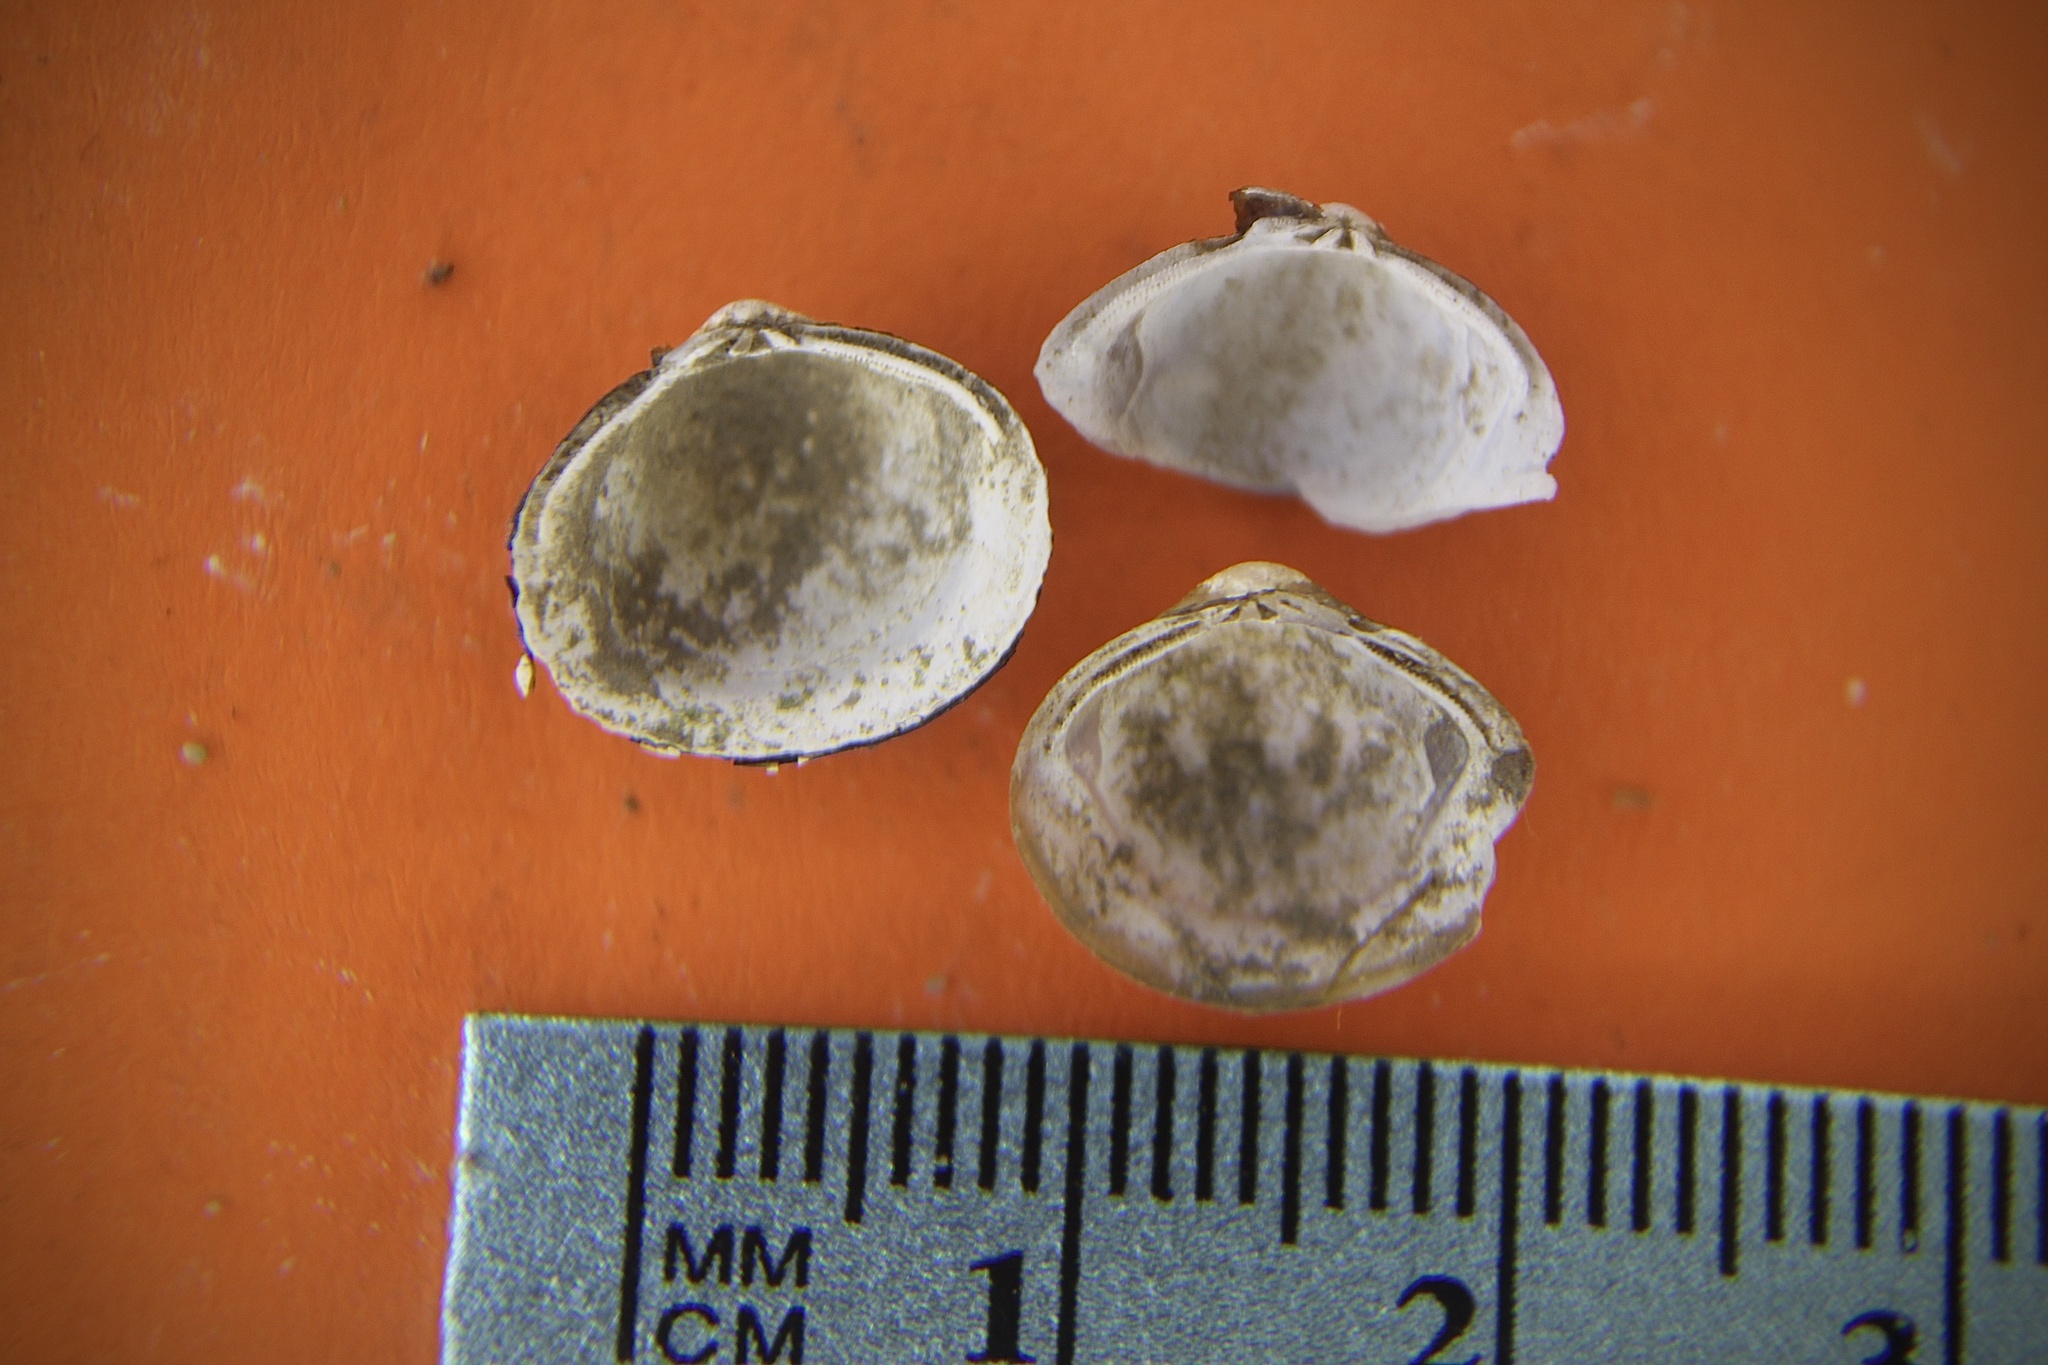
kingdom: Animalia
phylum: Mollusca
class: Bivalvia
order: Venerida
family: Cyrenidae
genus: Corbicula
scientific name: Corbicula fluminea
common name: Asian clam
